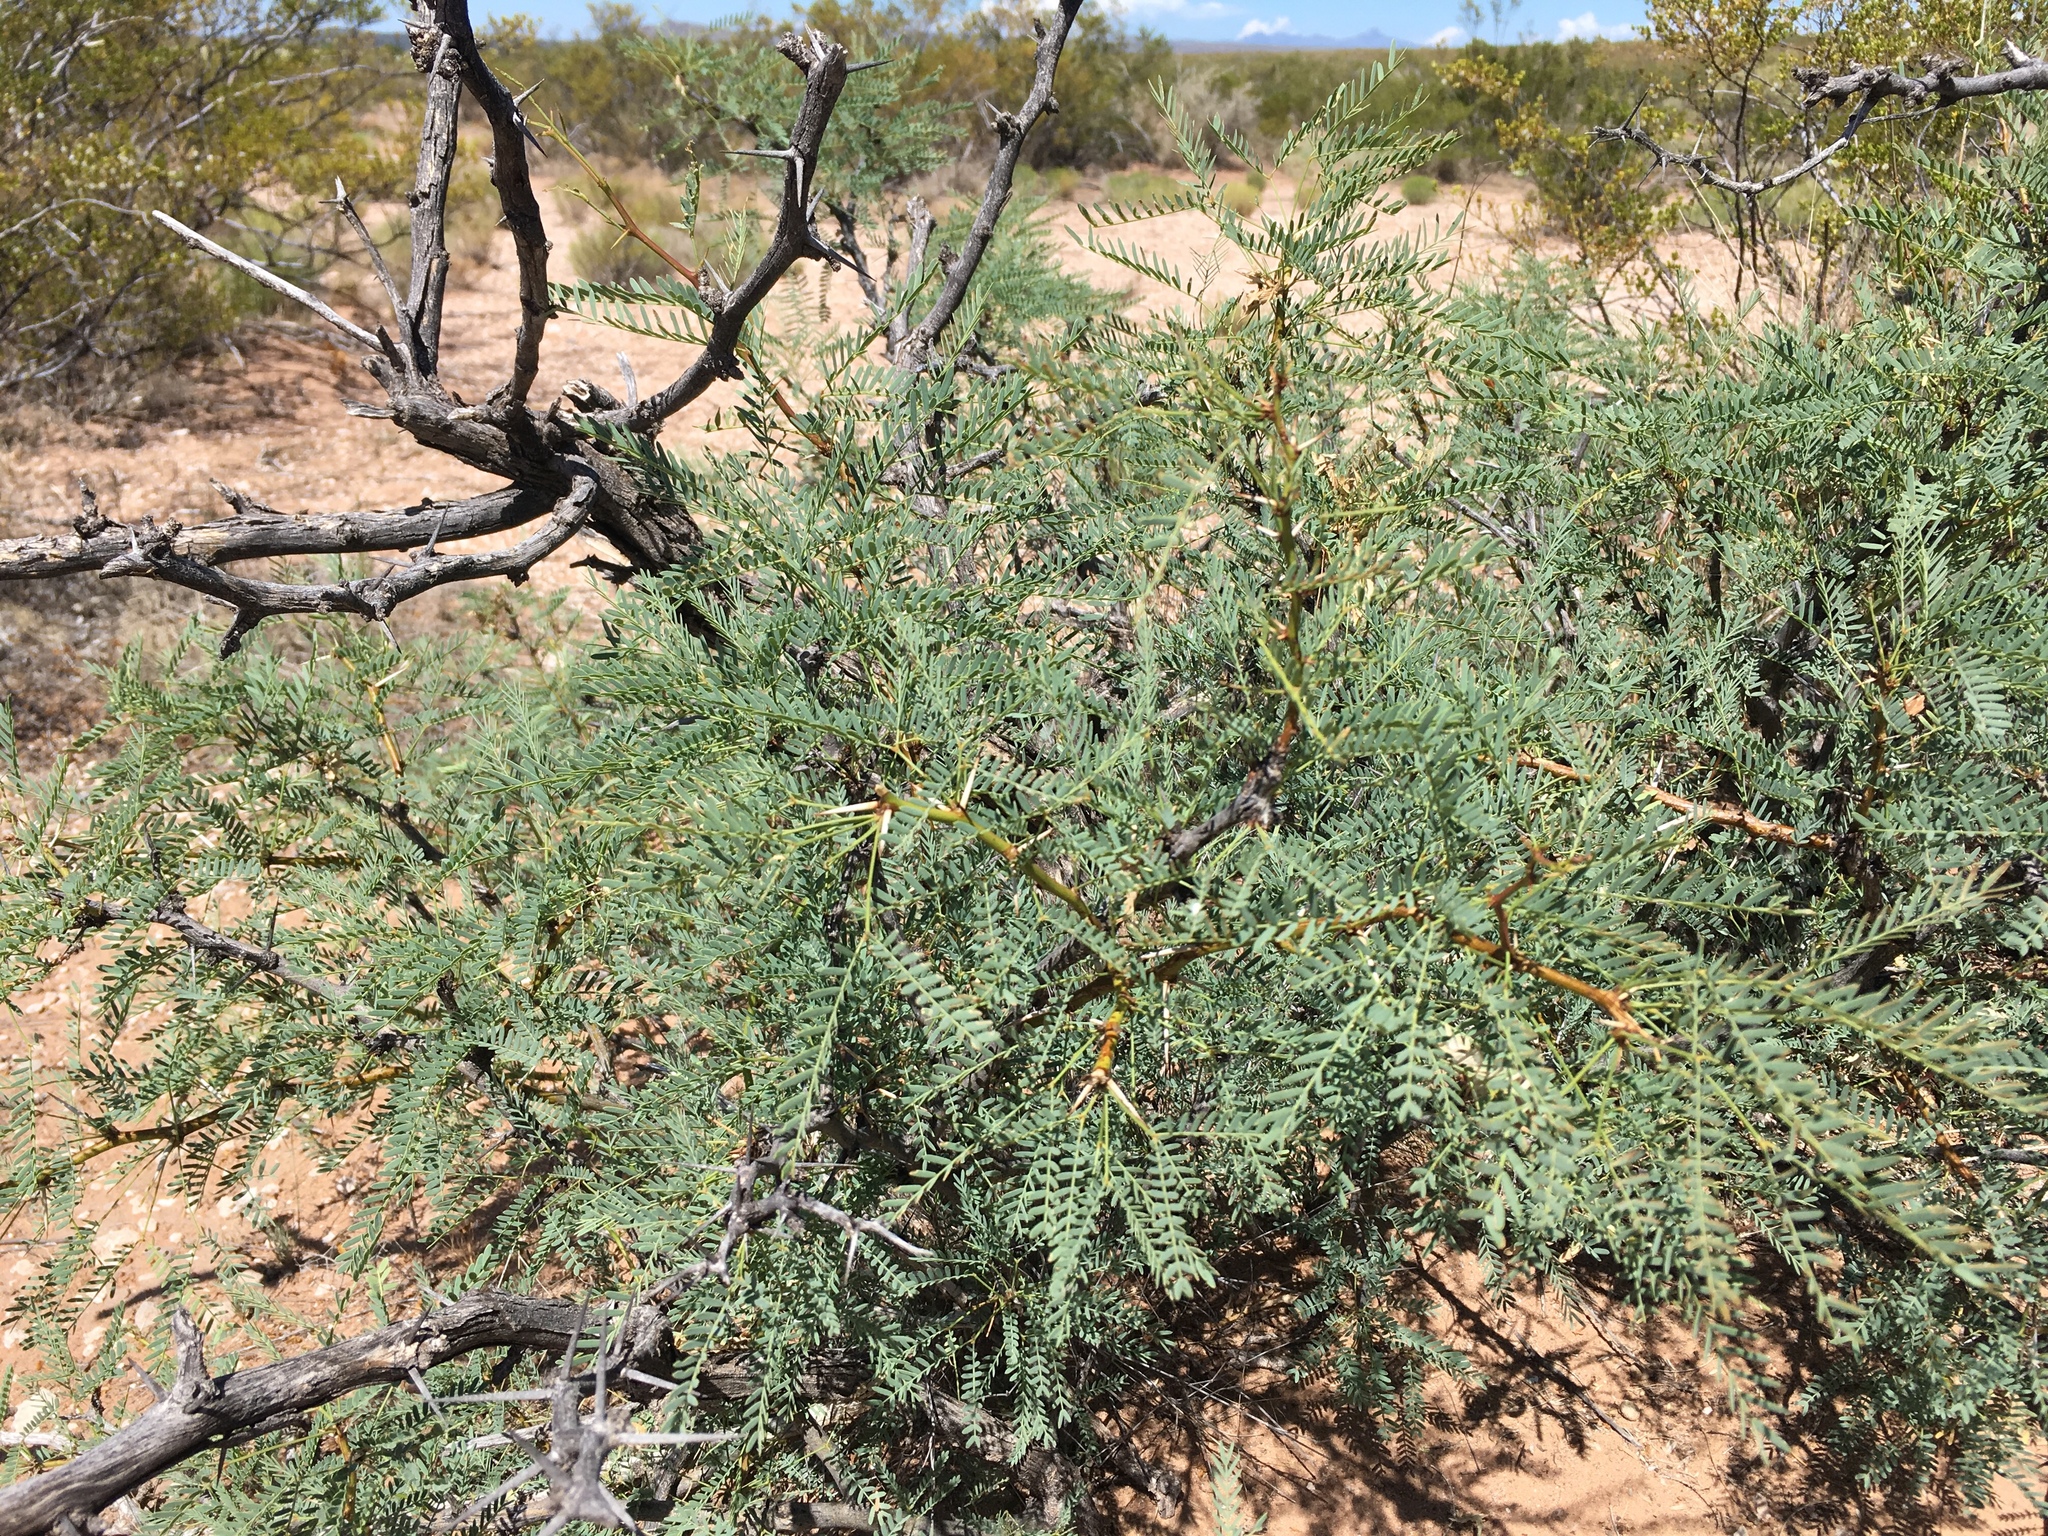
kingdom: Plantae
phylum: Tracheophyta
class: Magnoliopsida
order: Fabales
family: Fabaceae
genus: Prosopis
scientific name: Prosopis glandulosa
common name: Honey mesquite
